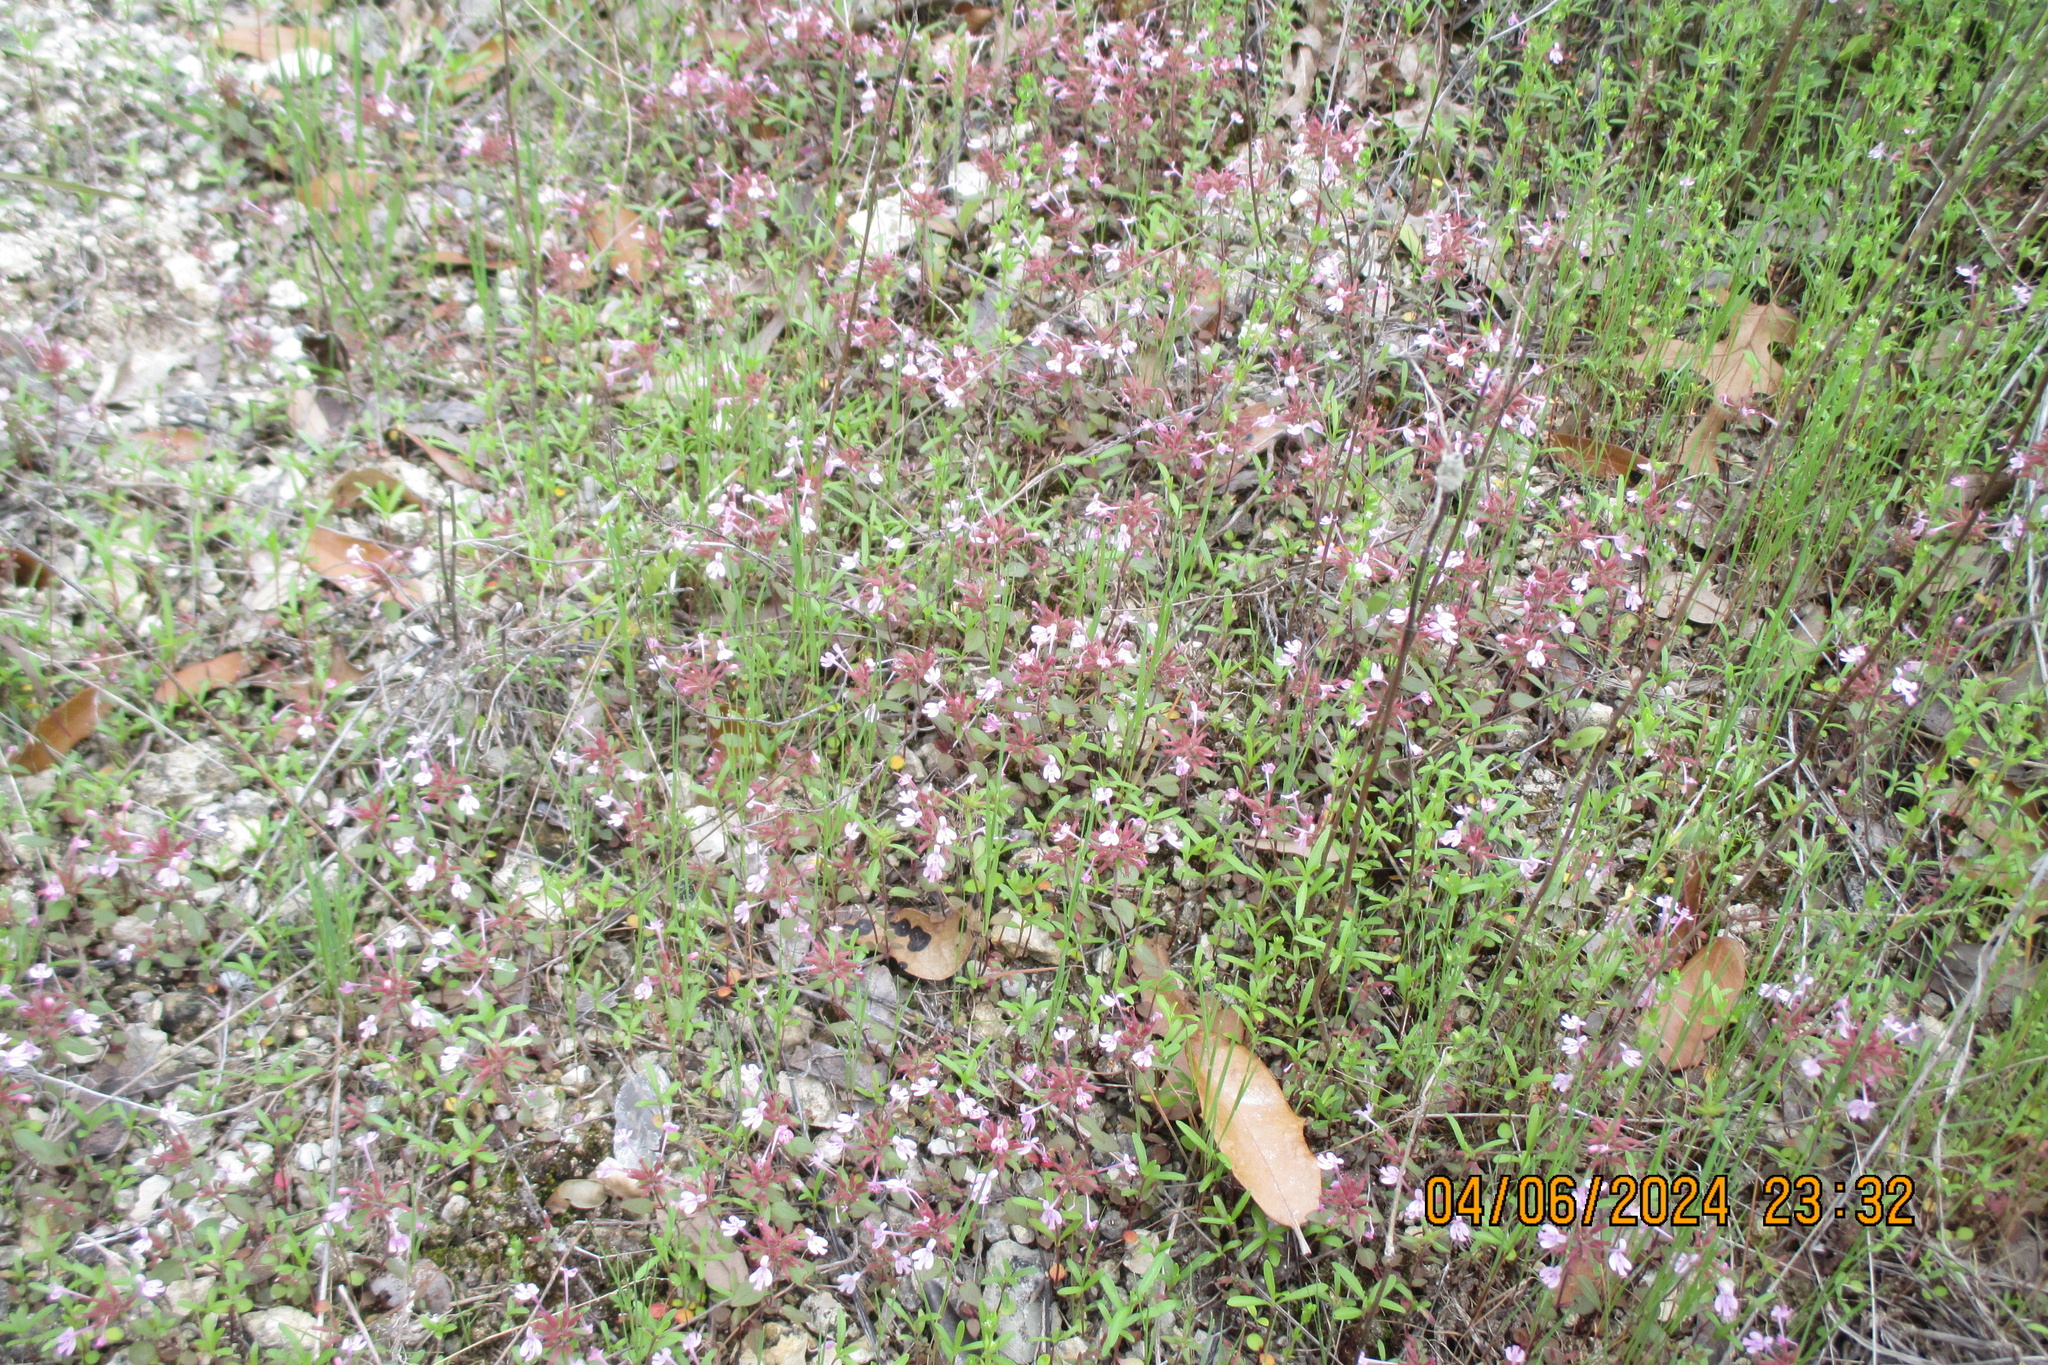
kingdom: Plantae
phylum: Tracheophyta
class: Magnoliopsida
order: Lamiales
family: Lamiaceae
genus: Hedeoma
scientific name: Hedeoma acinoides
